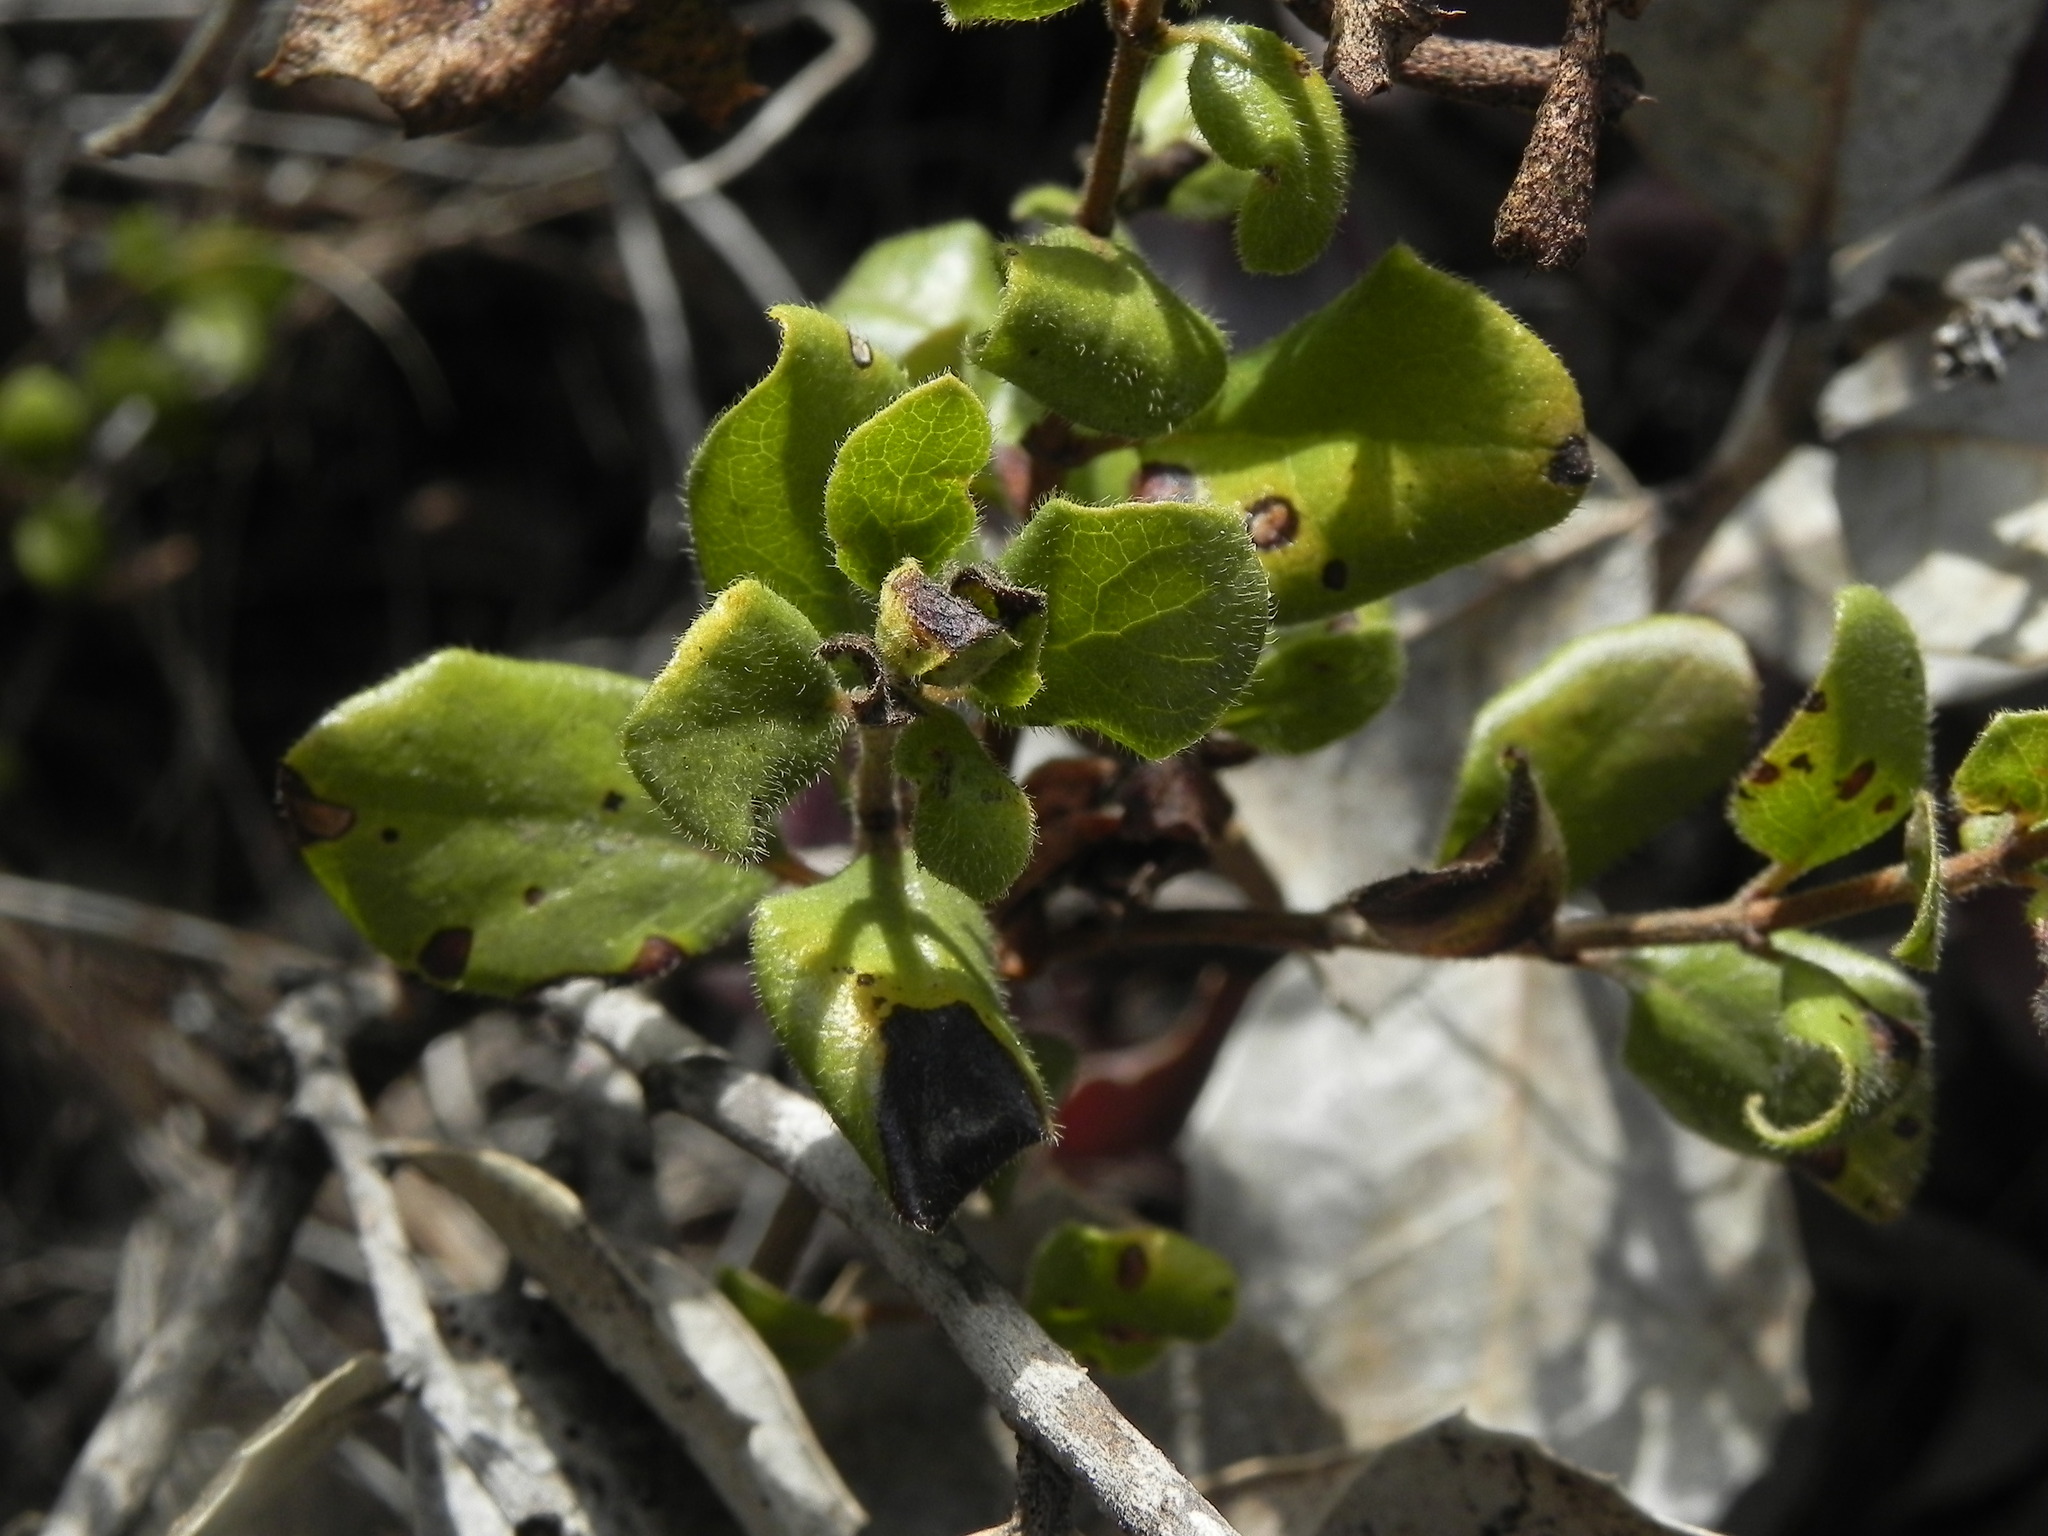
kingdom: Plantae
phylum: Tracheophyta
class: Magnoliopsida
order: Dipsacales
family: Caprifoliaceae
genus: Lonicera
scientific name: Lonicera subspicata
